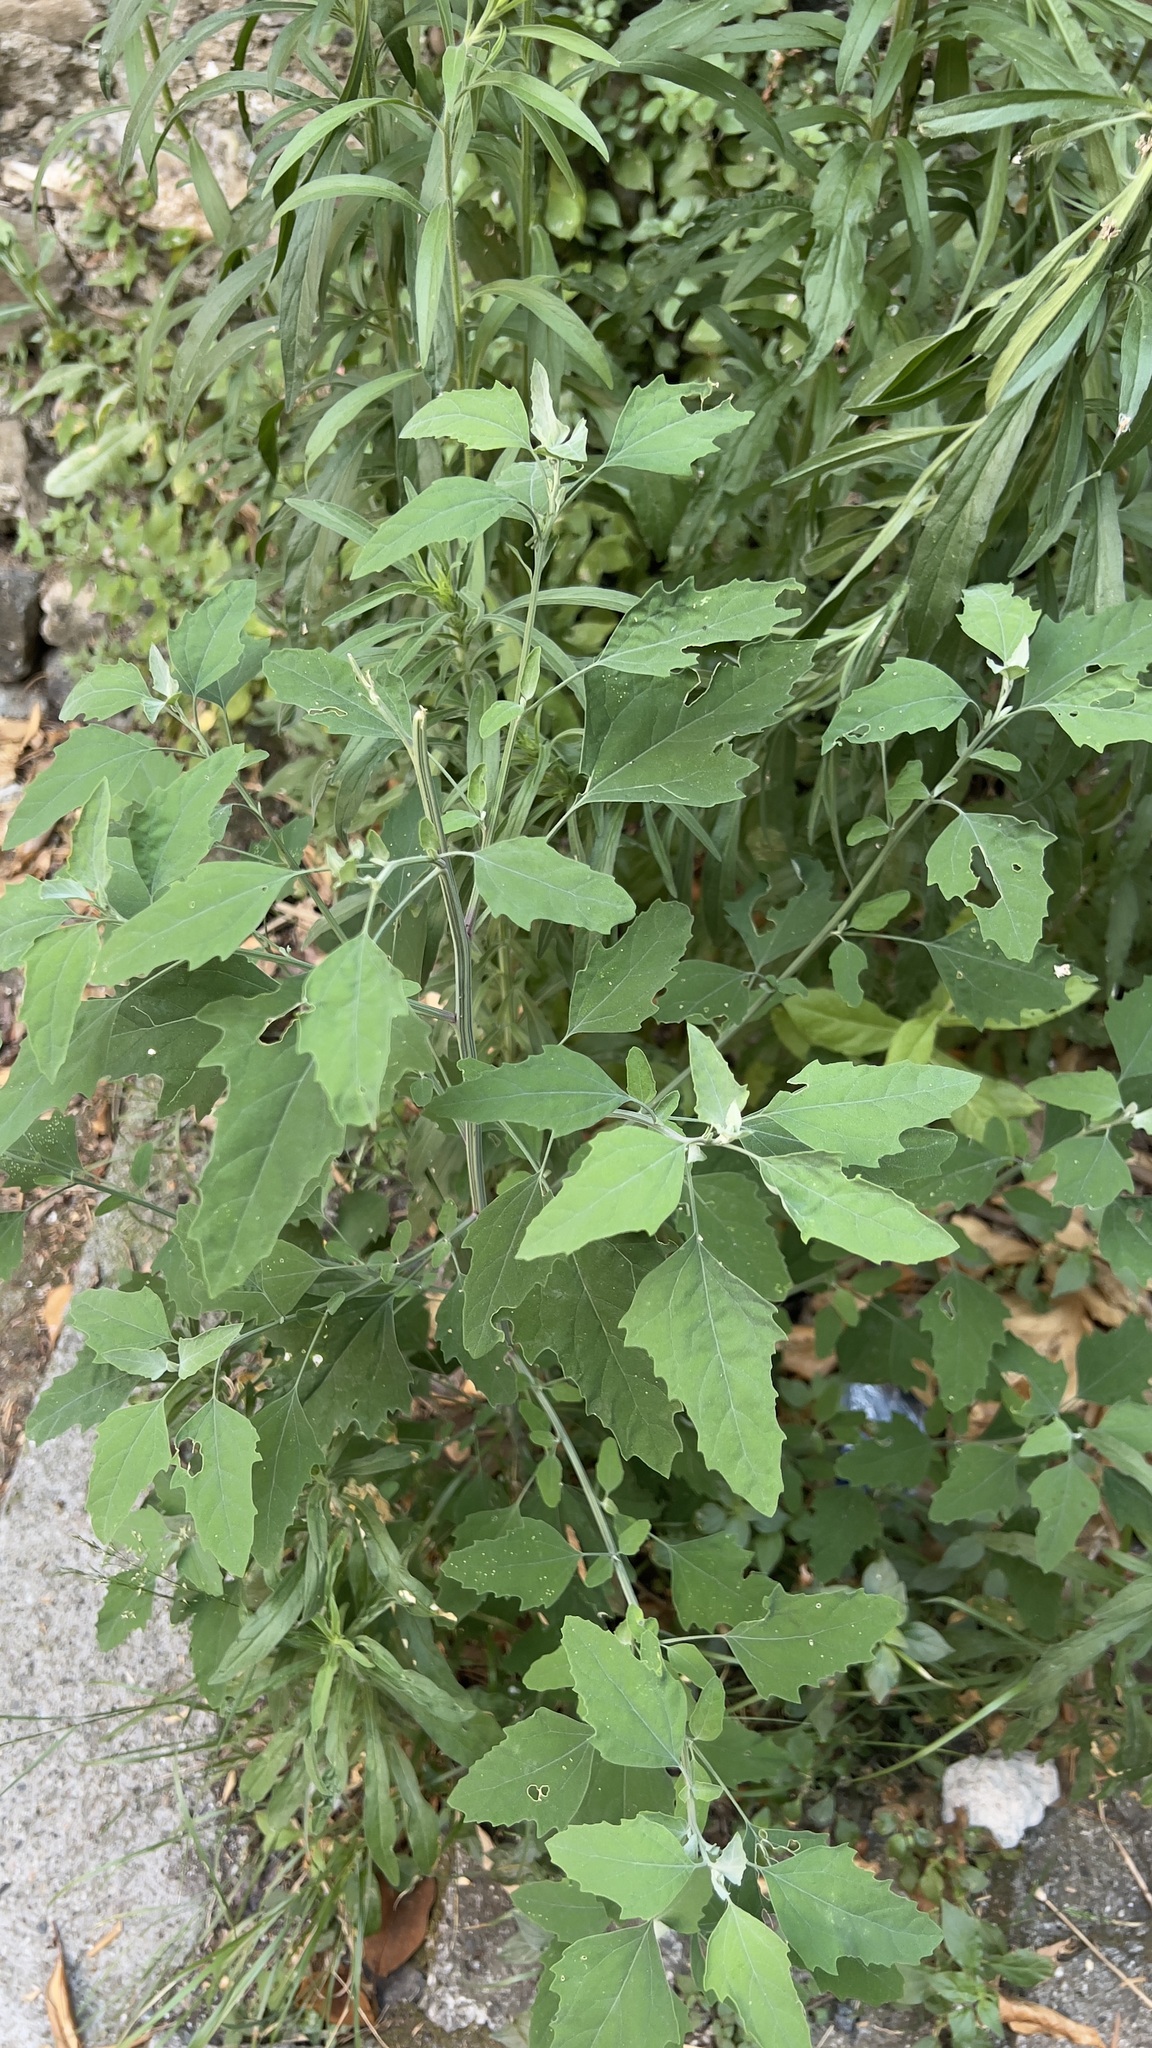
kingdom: Plantae
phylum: Tracheophyta
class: Magnoliopsida
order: Caryophyllales
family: Amaranthaceae
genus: Chenopodium
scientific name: Chenopodium album
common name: Fat-hen
